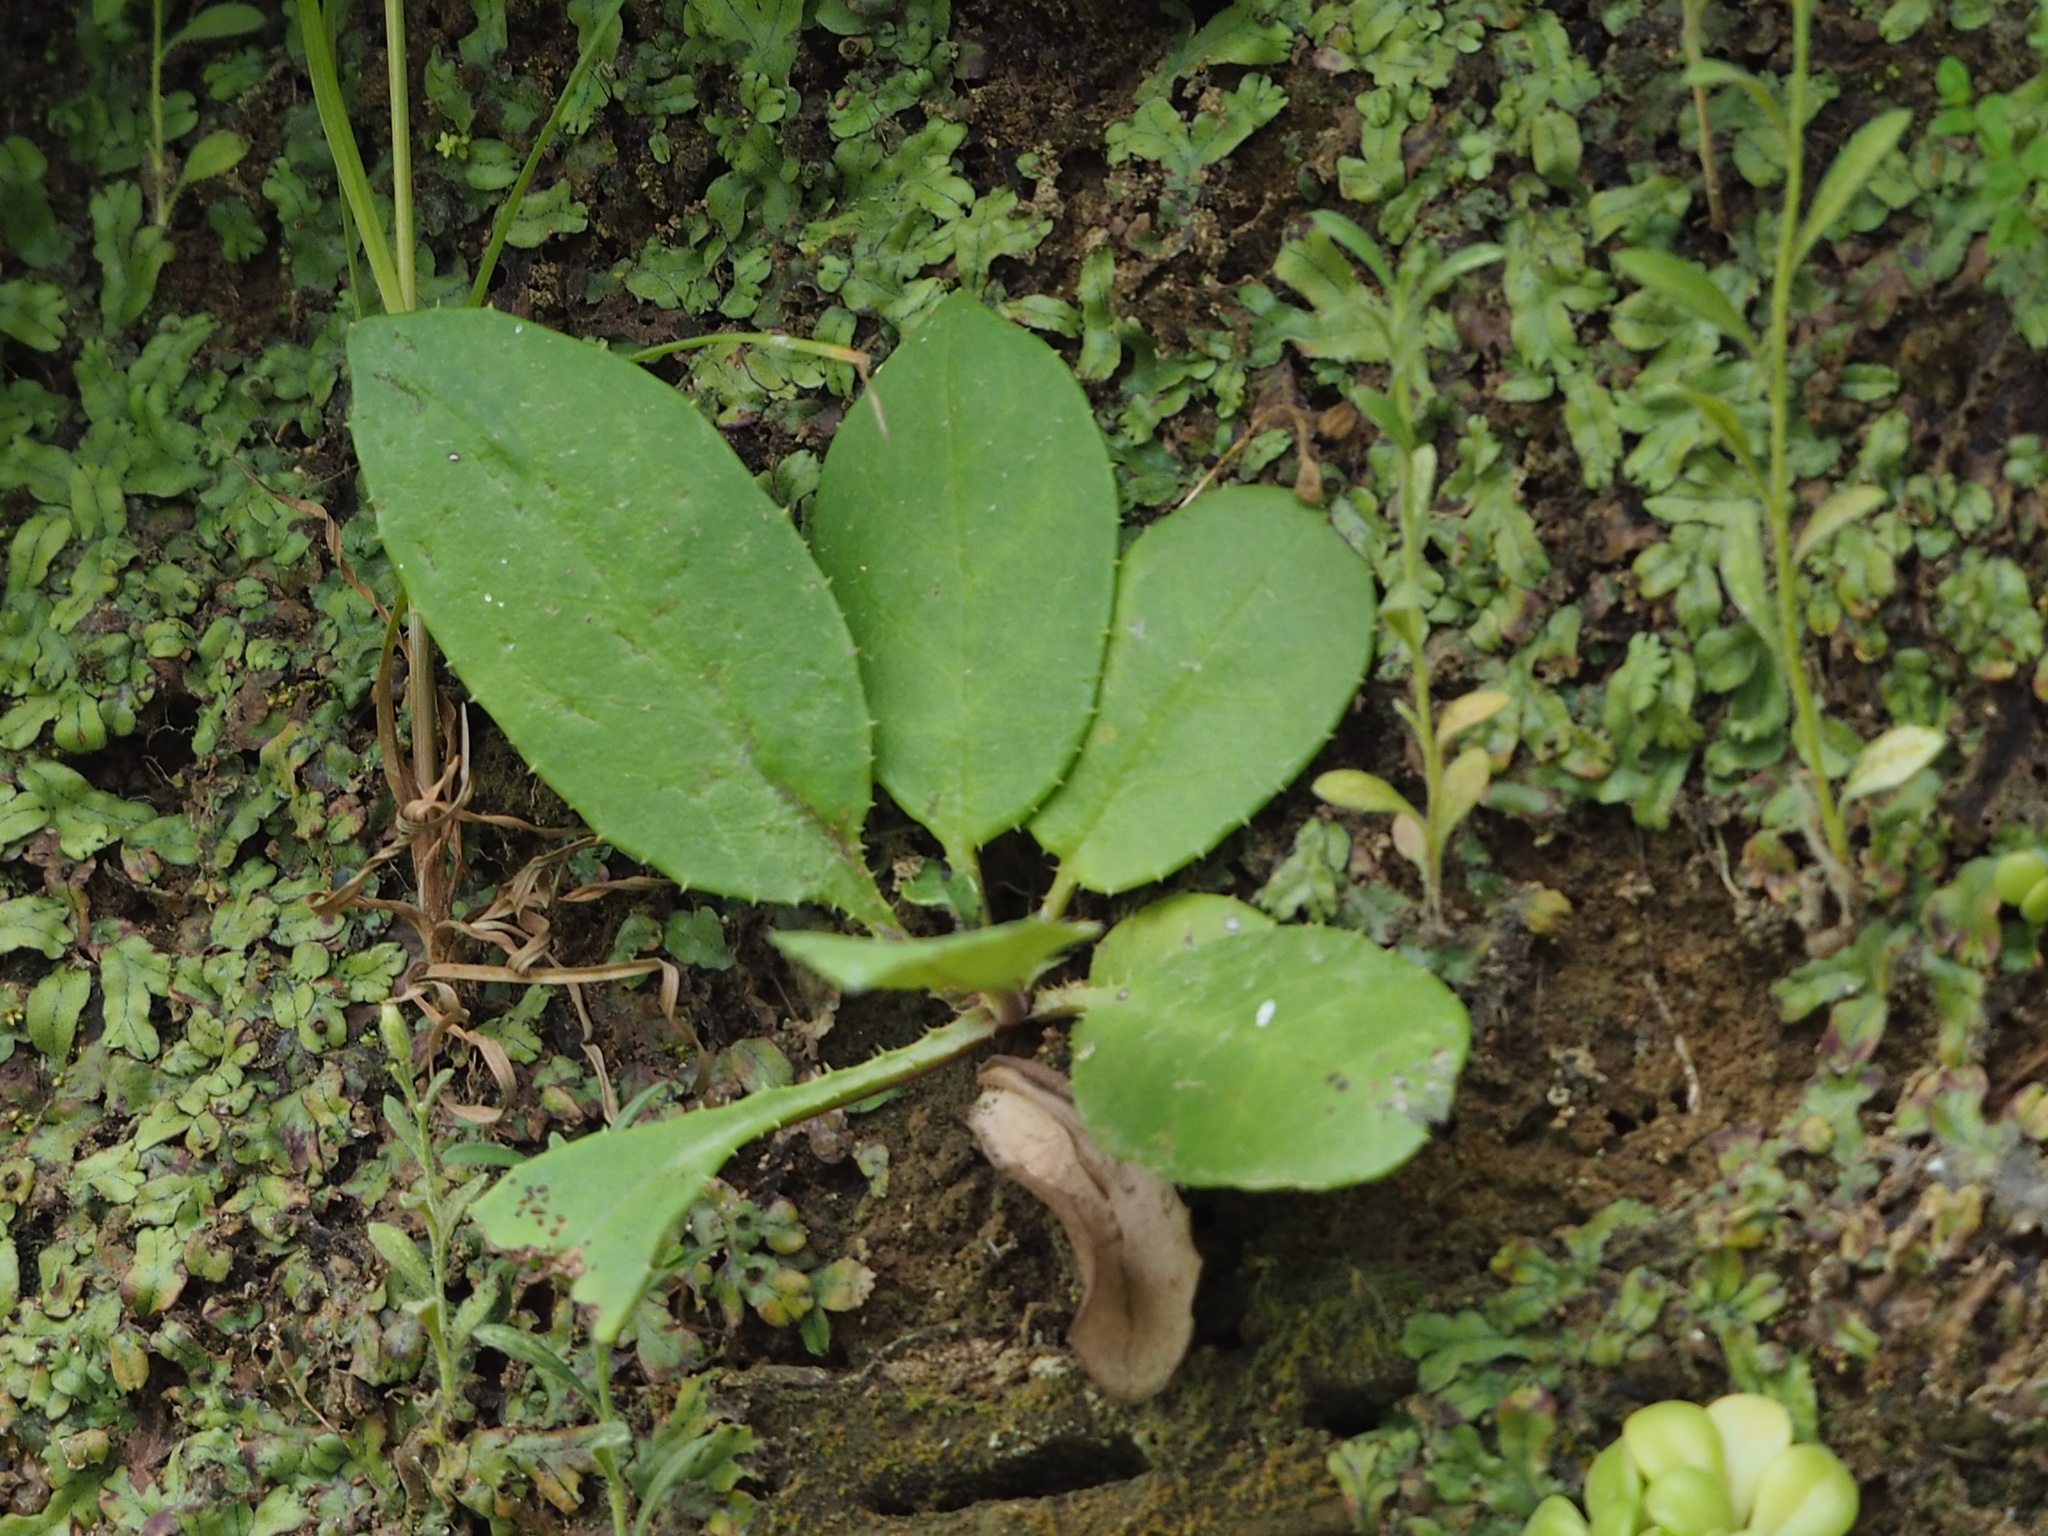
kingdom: Plantae
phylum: Tracheophyta
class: Magnoliopsida
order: Asterales
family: Asteraceae
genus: Ixeridium
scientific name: Ixeridium laevigatum
